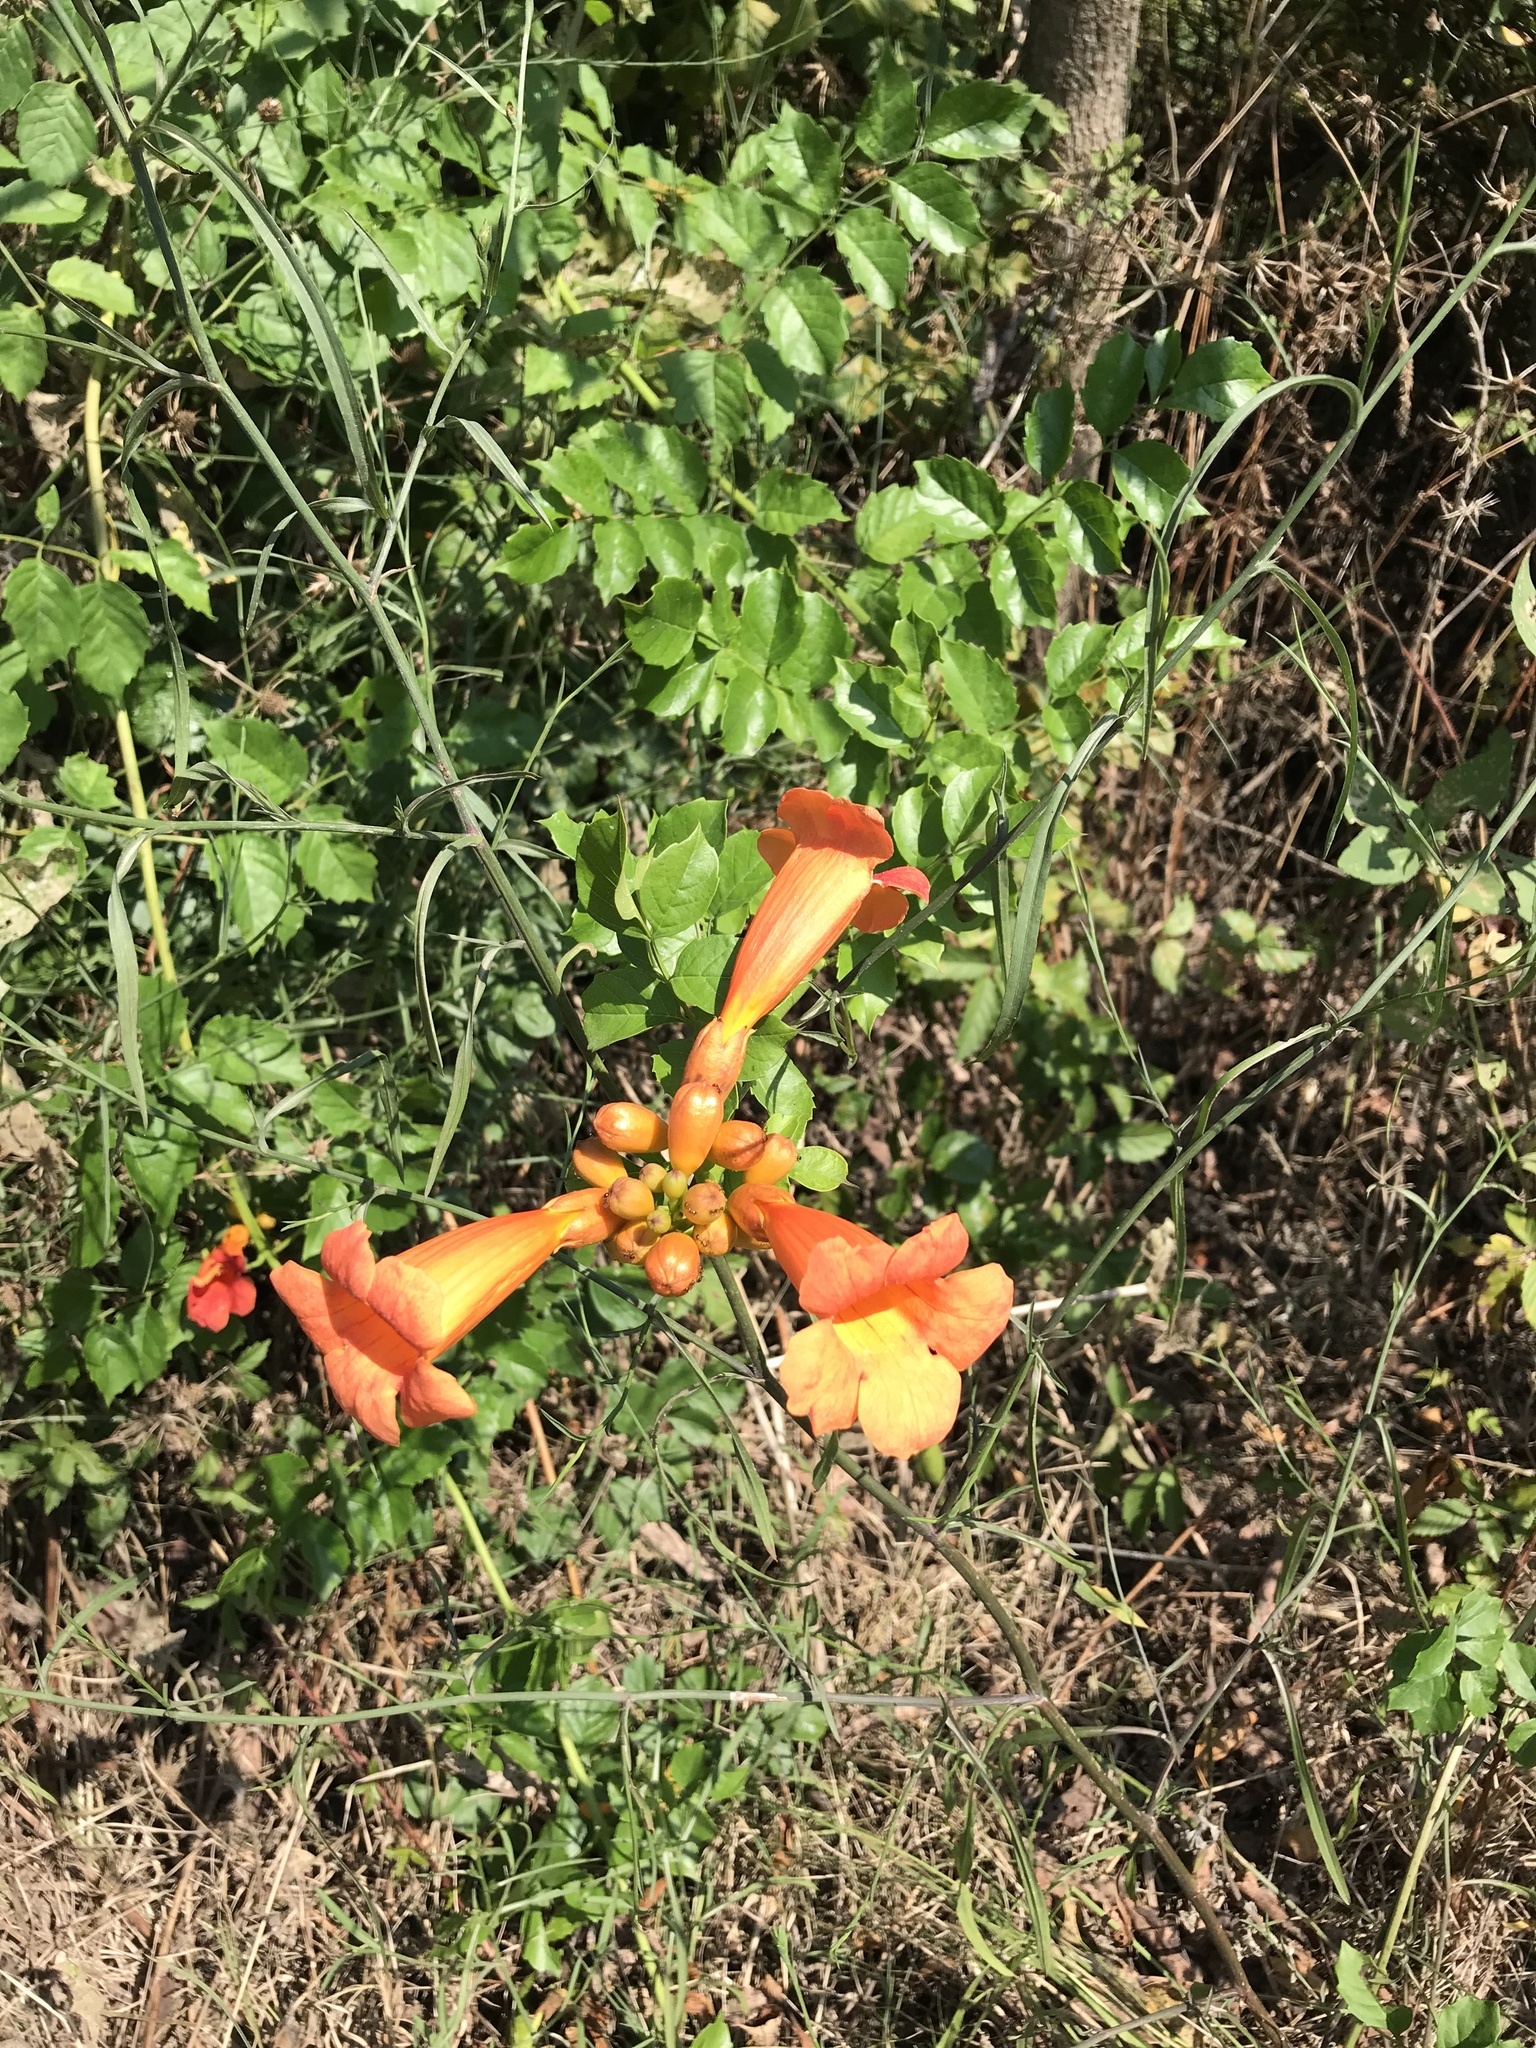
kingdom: Plantae
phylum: Tracheophyta
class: Magnoliopsida
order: Lamiales
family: Bignoniaceae
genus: Campsis
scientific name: Campsis radicans
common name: Trumpet-creeper
